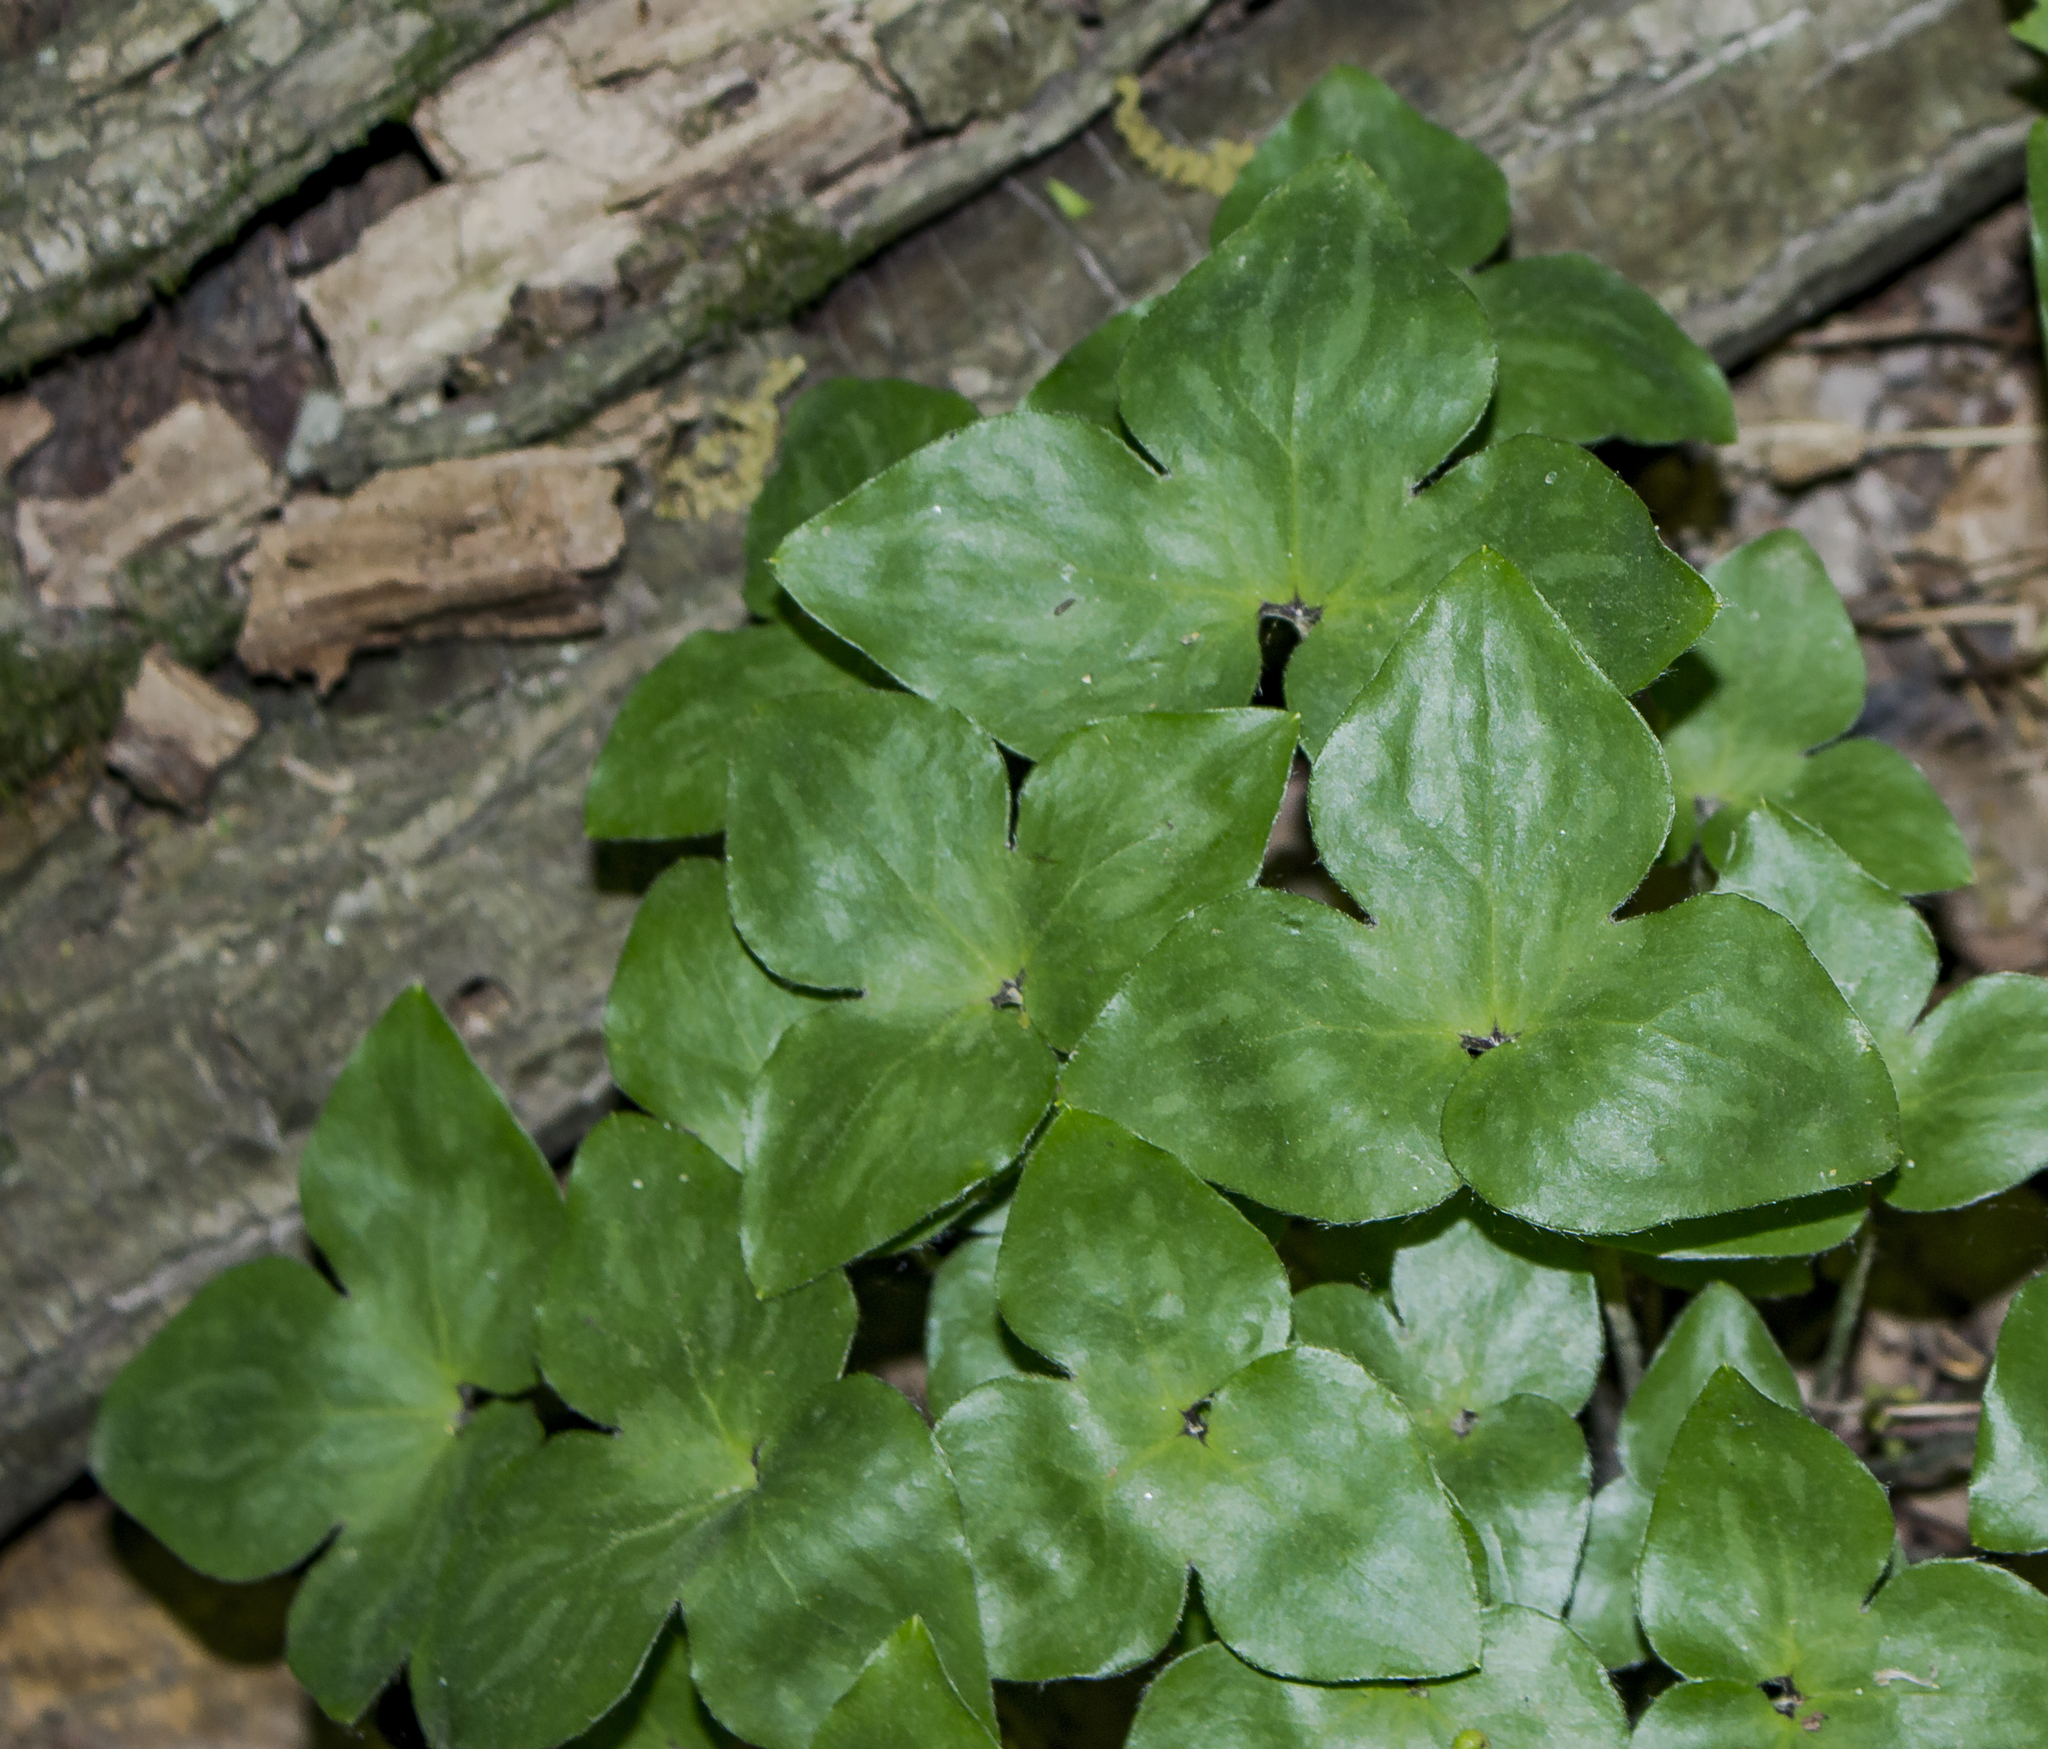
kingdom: Plantae
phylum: Tracheophyta
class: Magnoliopsida
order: Ranunculales
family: Ranunculaceae
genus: Hepatica
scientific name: Hepatica acutiloba
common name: Sharp-lobed hepatica
